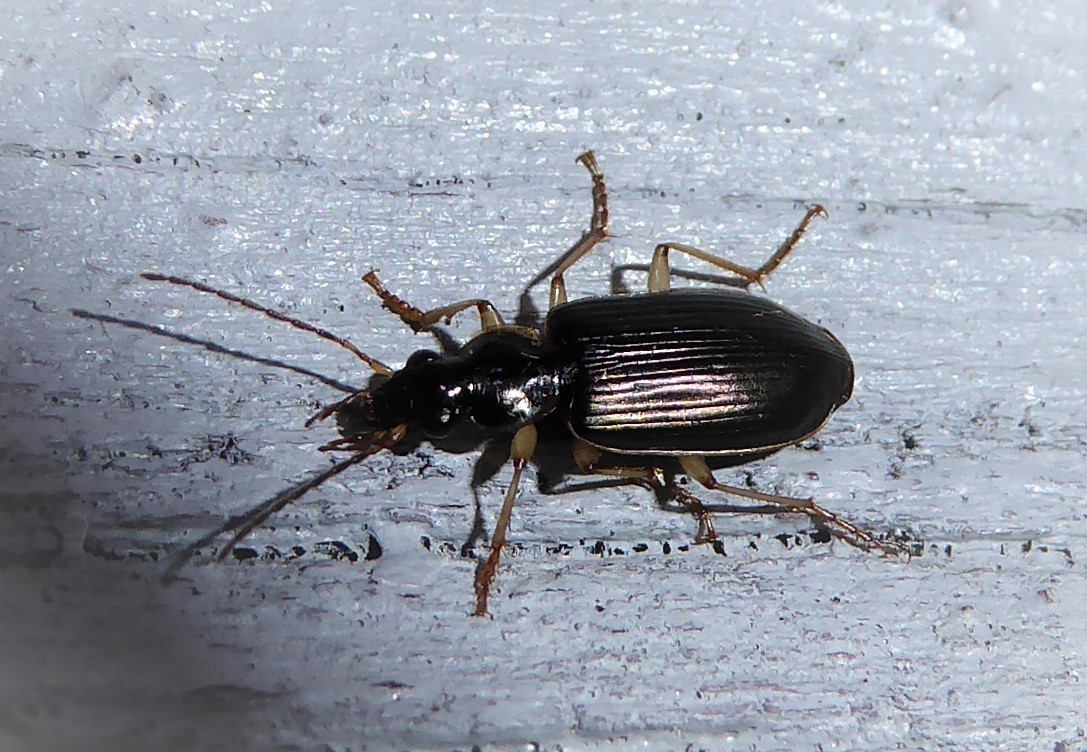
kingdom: Animalia
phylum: Arthropoda
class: Insecta
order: Coleoptera
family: Carabidae
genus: Notagonum
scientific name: Notagonum submetallicum
